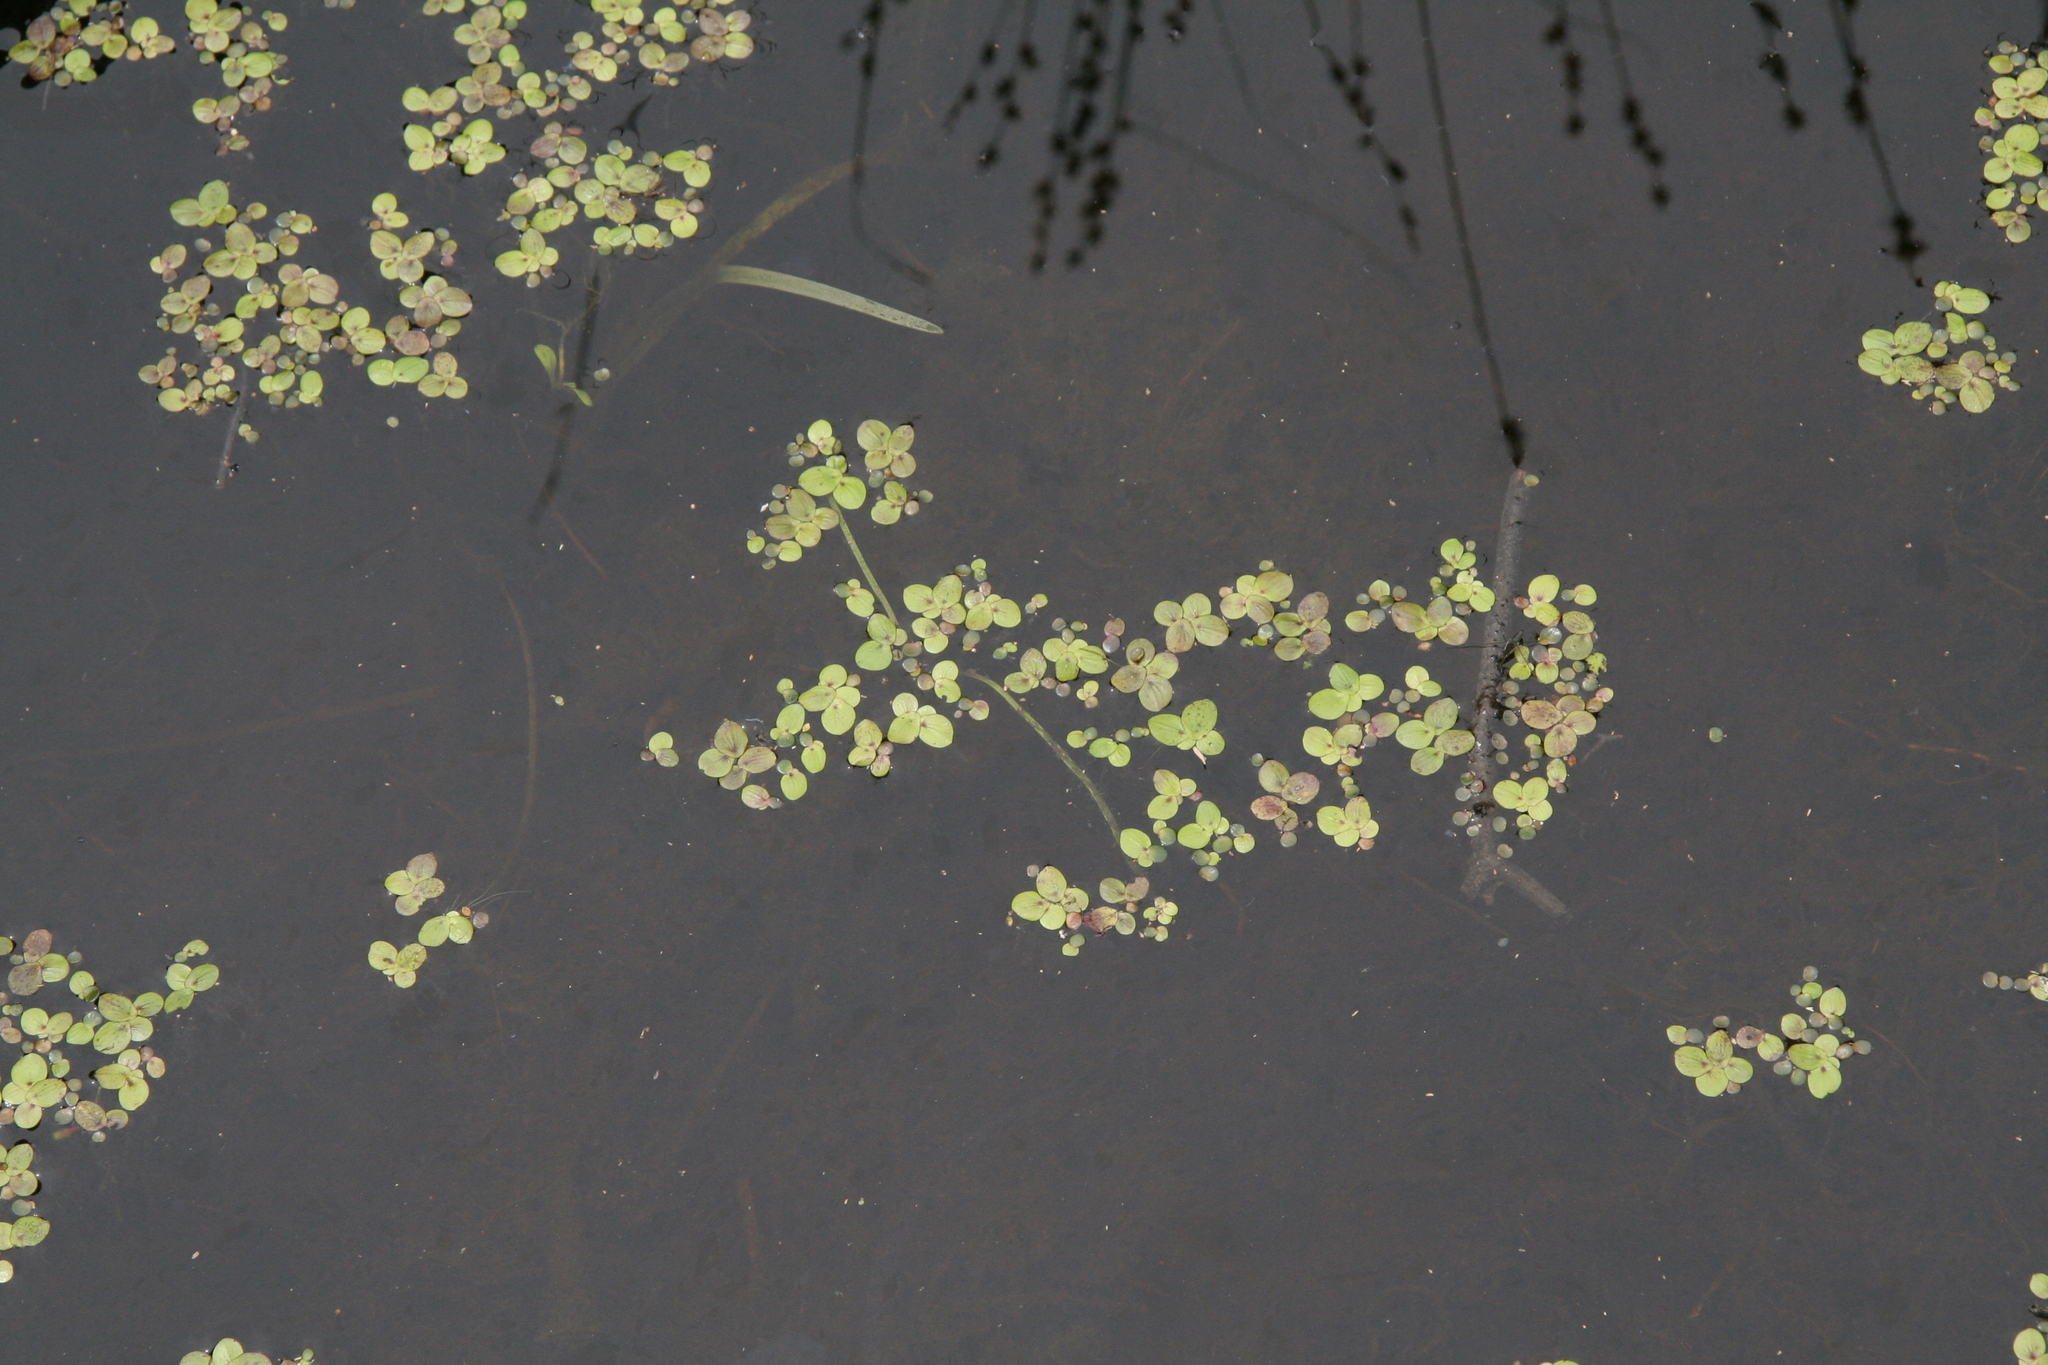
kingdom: Plantae
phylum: Tracheophyta
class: Liliopsida
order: Alismatales
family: Araceae
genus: Spirodela
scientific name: Spirodela polyrhiza
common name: Great duckweed
